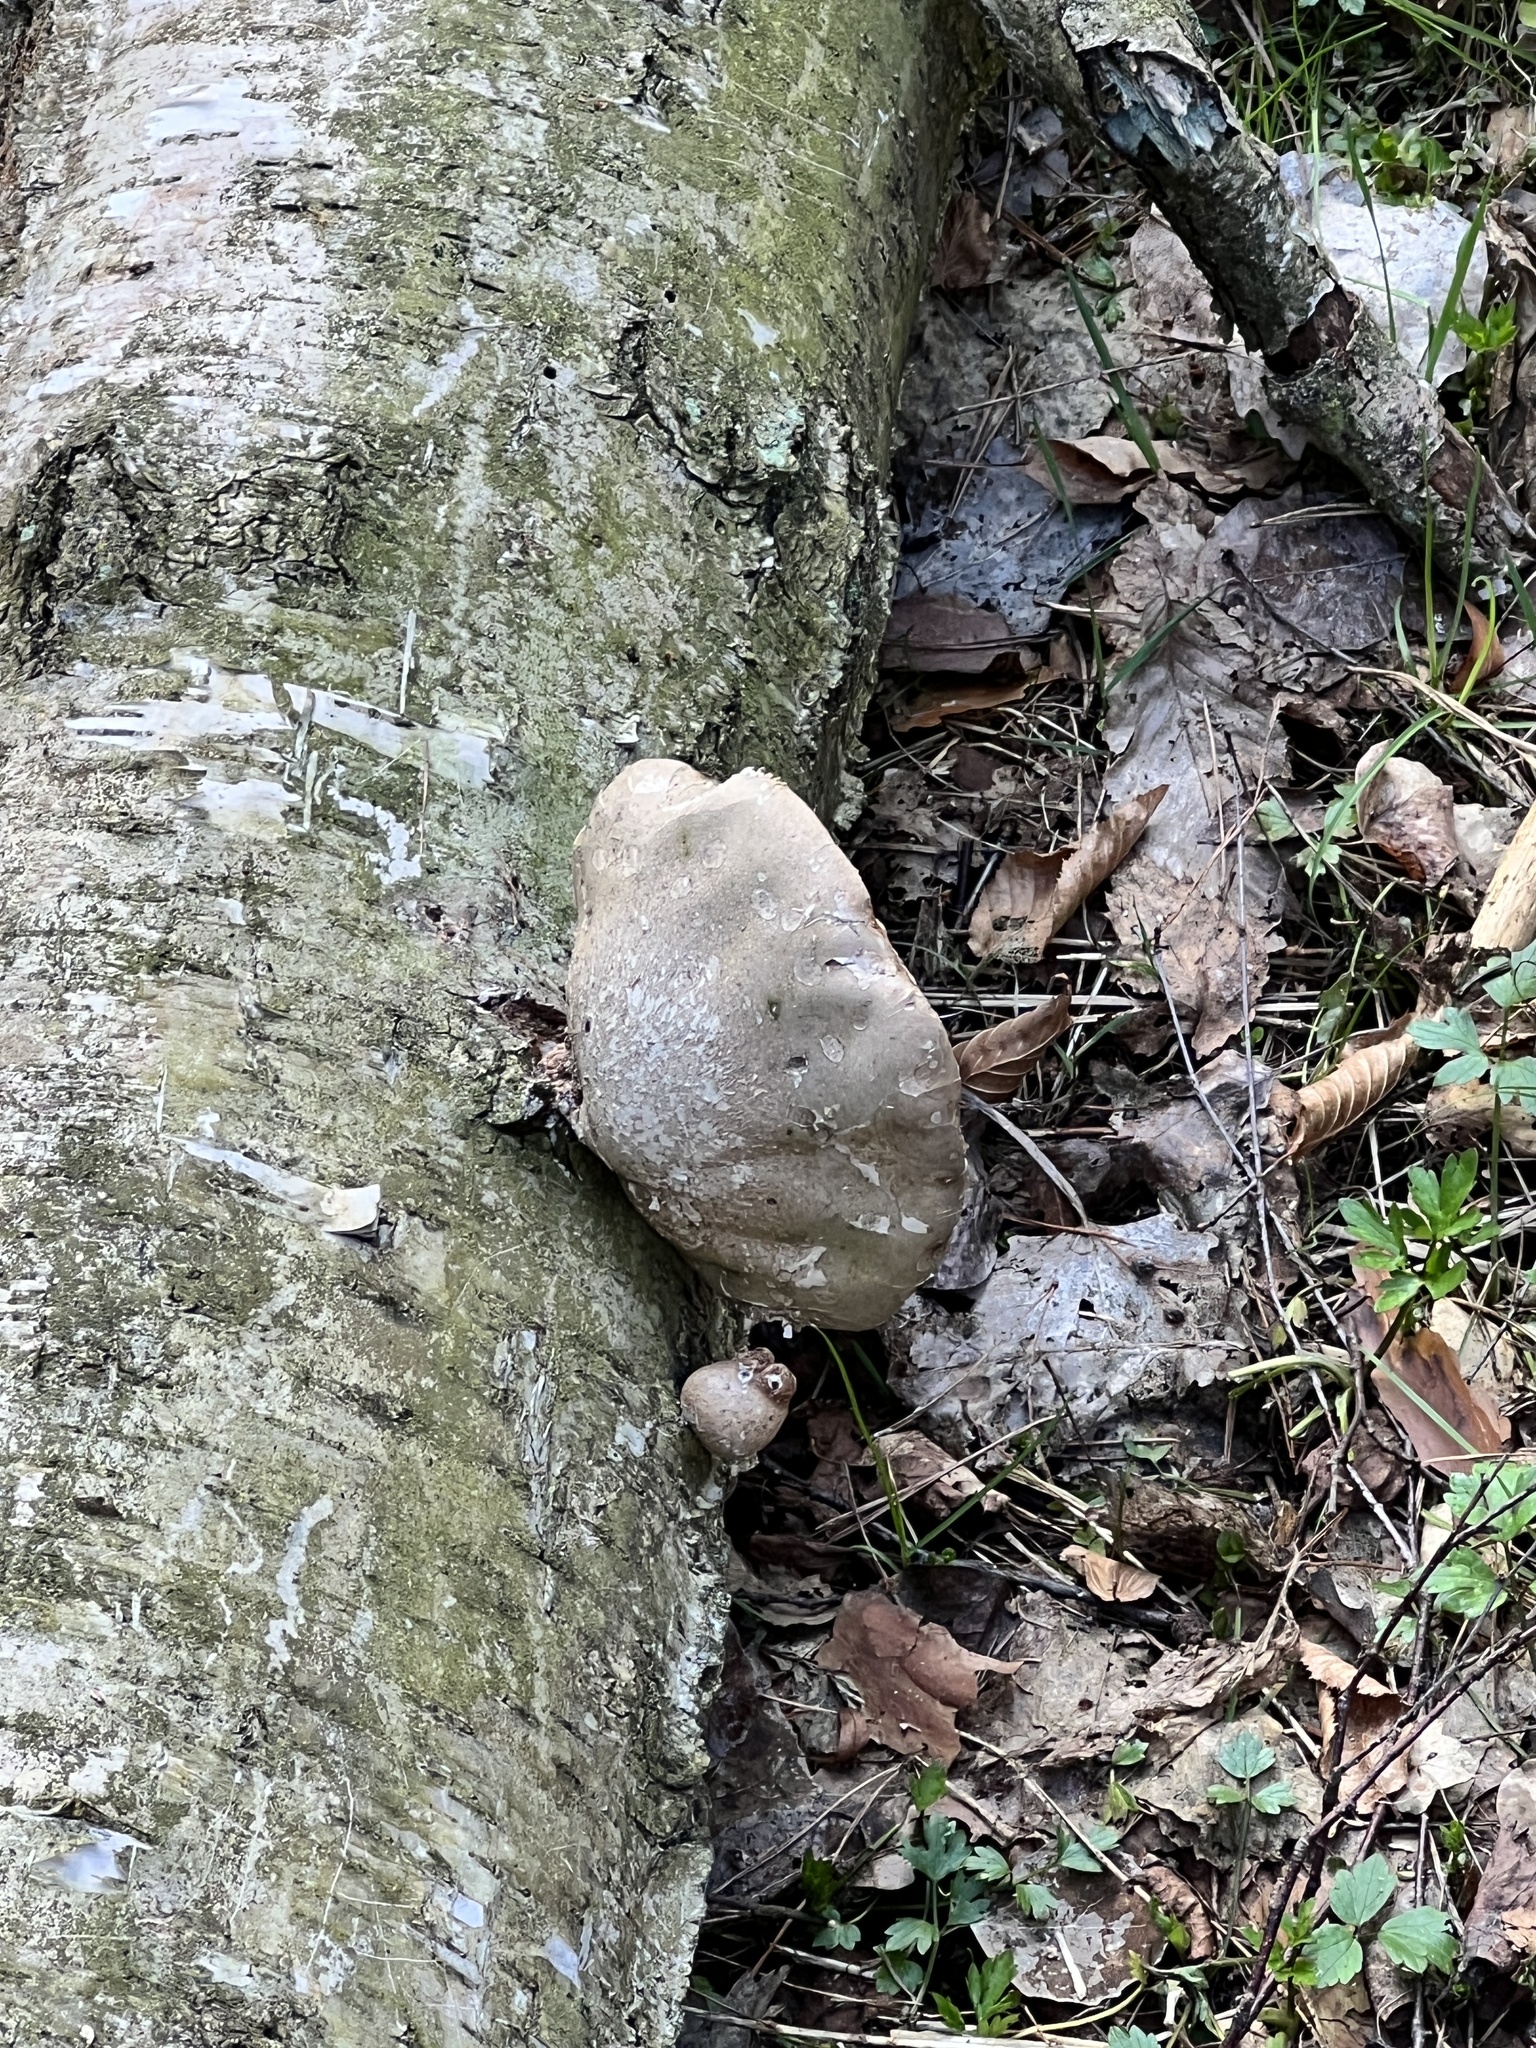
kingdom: Fungi
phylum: Basidiomycota
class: Agaricomycetes
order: Polyporales
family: Fomitopsidaceae
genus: Fomitopsis
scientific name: Fomitopsis betulina
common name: Birch polypore
